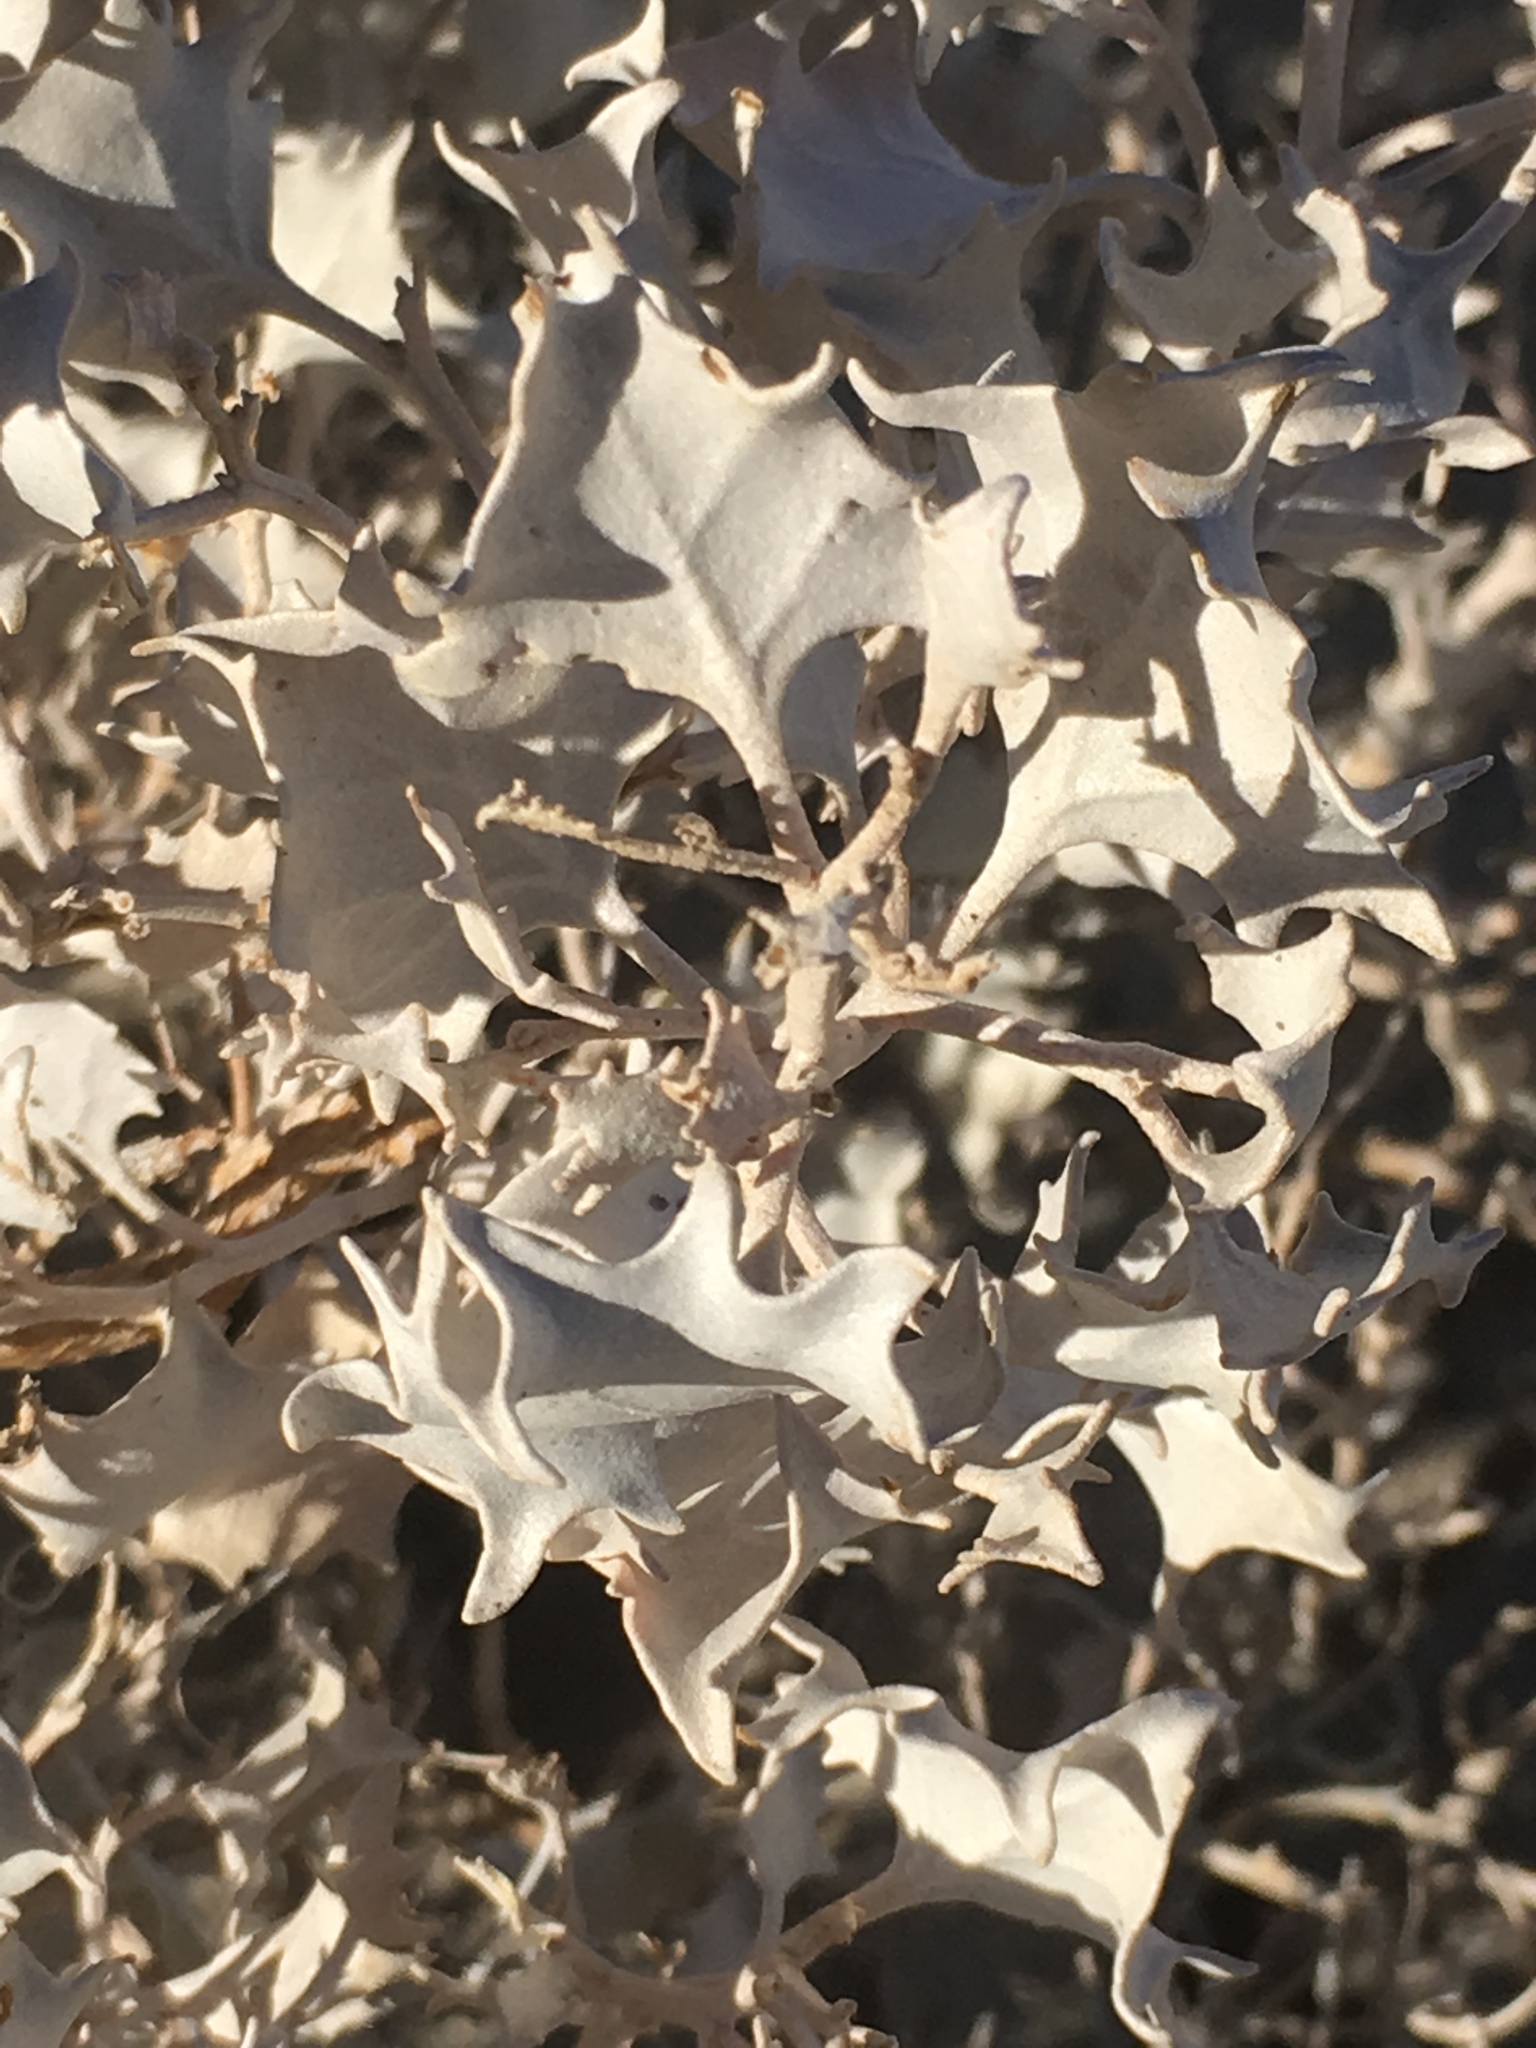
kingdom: Plantae
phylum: Tracheophyta
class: Magnoliopsida
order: Caryophyllales
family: Amaranthaceae
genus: Atriplex
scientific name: Atriplex hymenelytra
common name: Desert-holly
